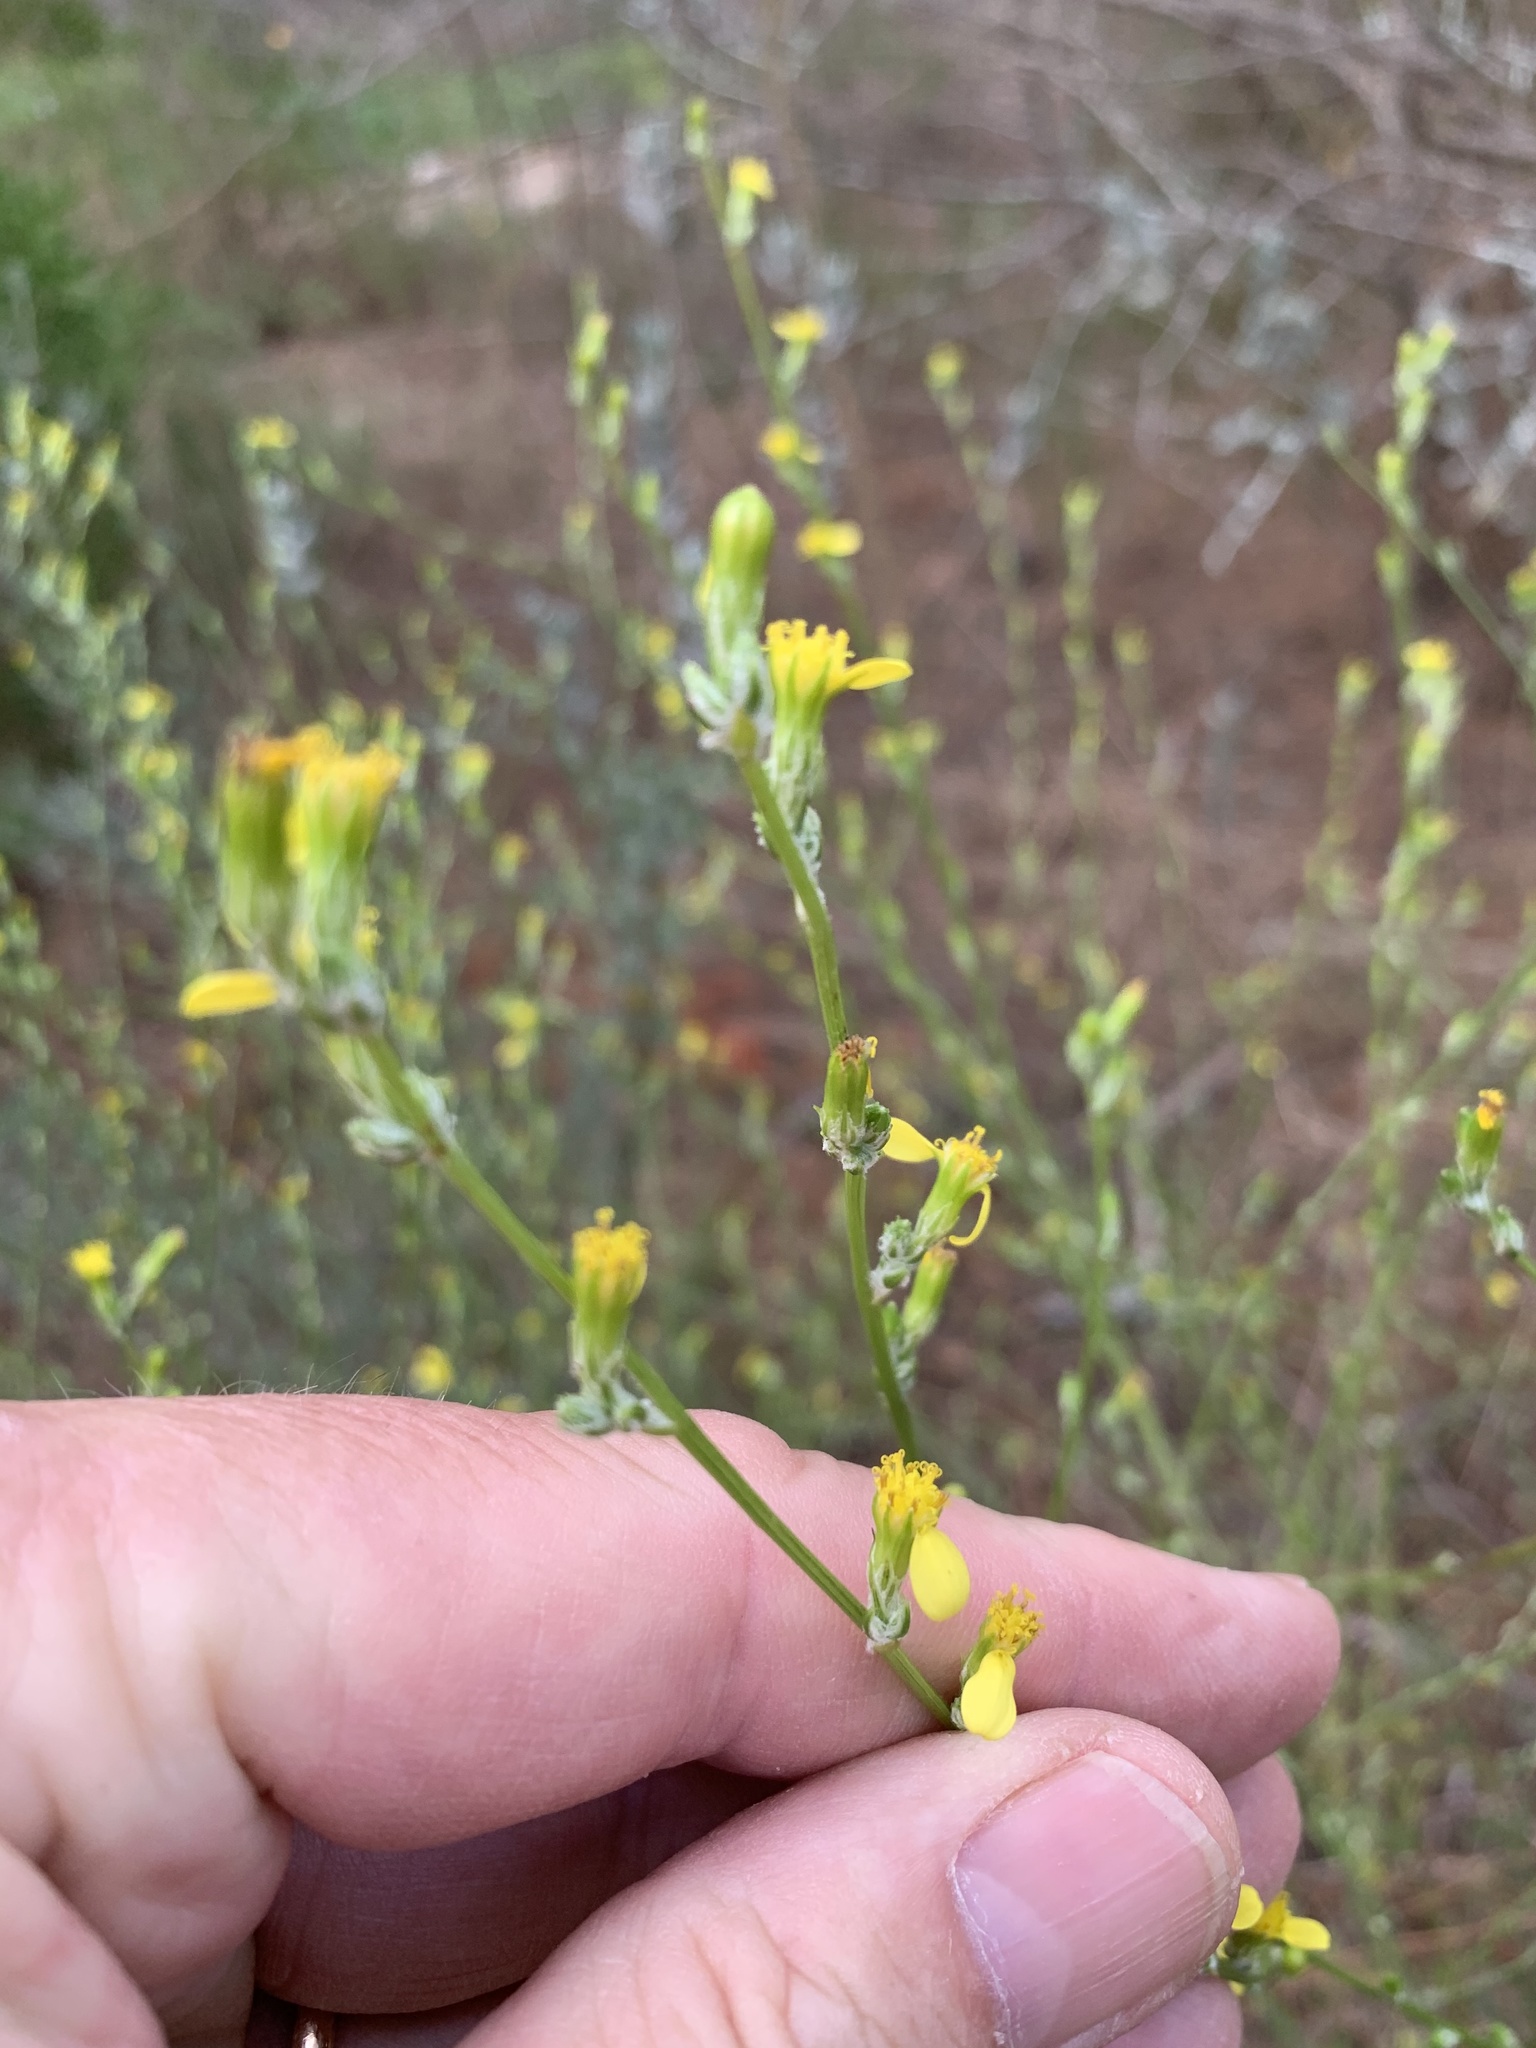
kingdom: Plantae
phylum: Tracheophyta
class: Magnoliopsida
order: Asterales
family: Asteraceae
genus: Senecio
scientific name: Senecio pubigerus
